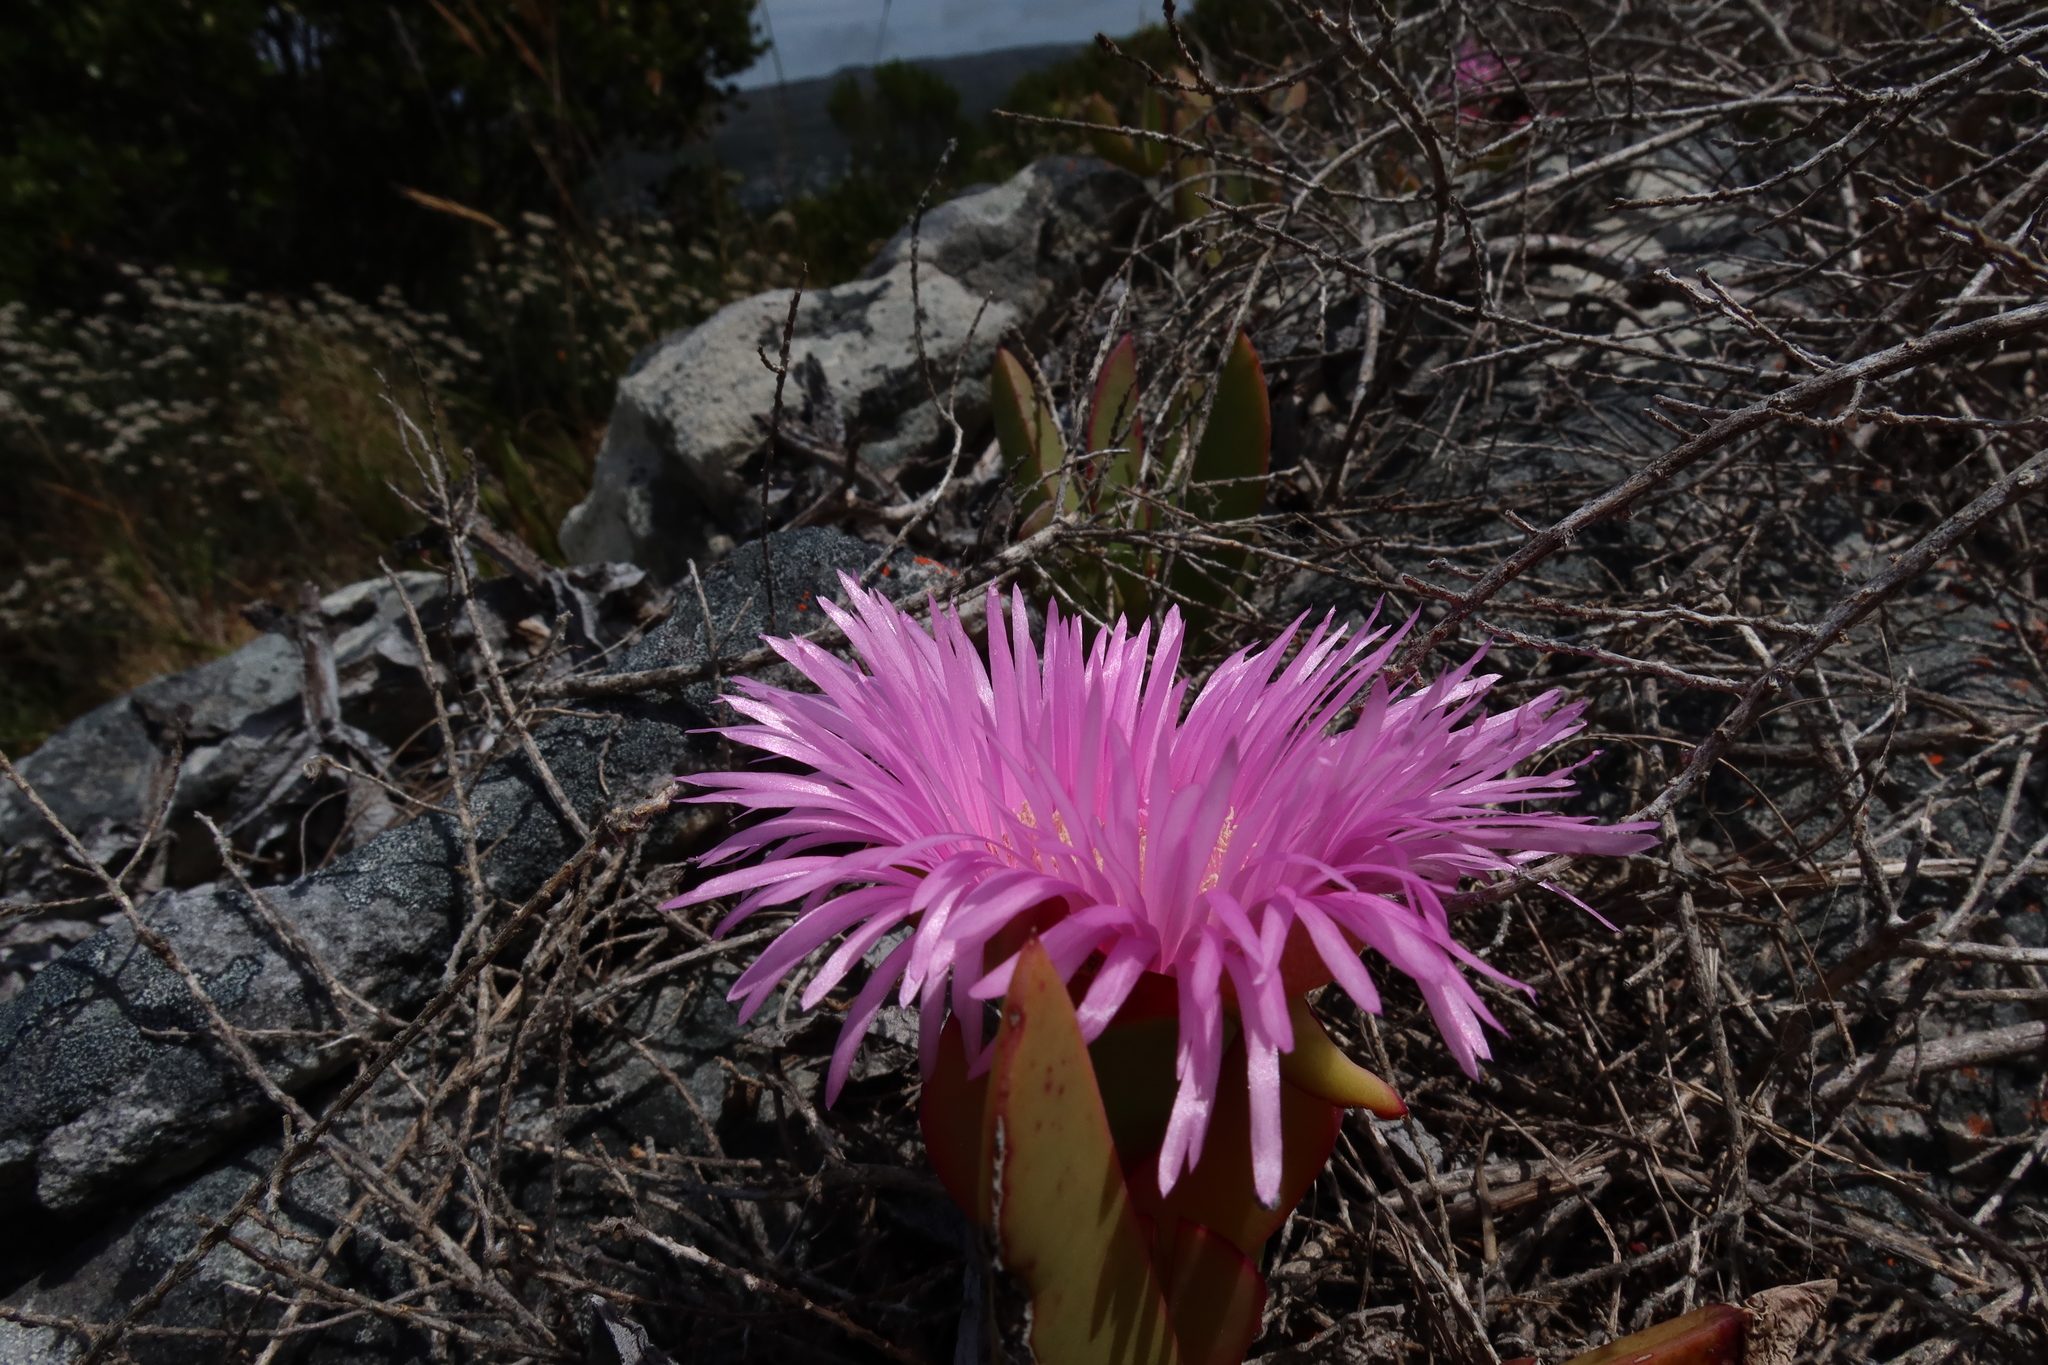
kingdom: Plantae
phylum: Tracheophyta
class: Magnoliopsida
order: Caryophyllales
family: Aizoaceae
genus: Carpobrotus
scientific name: Carpobrotus acinaciformis
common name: Sally-my-handsome
